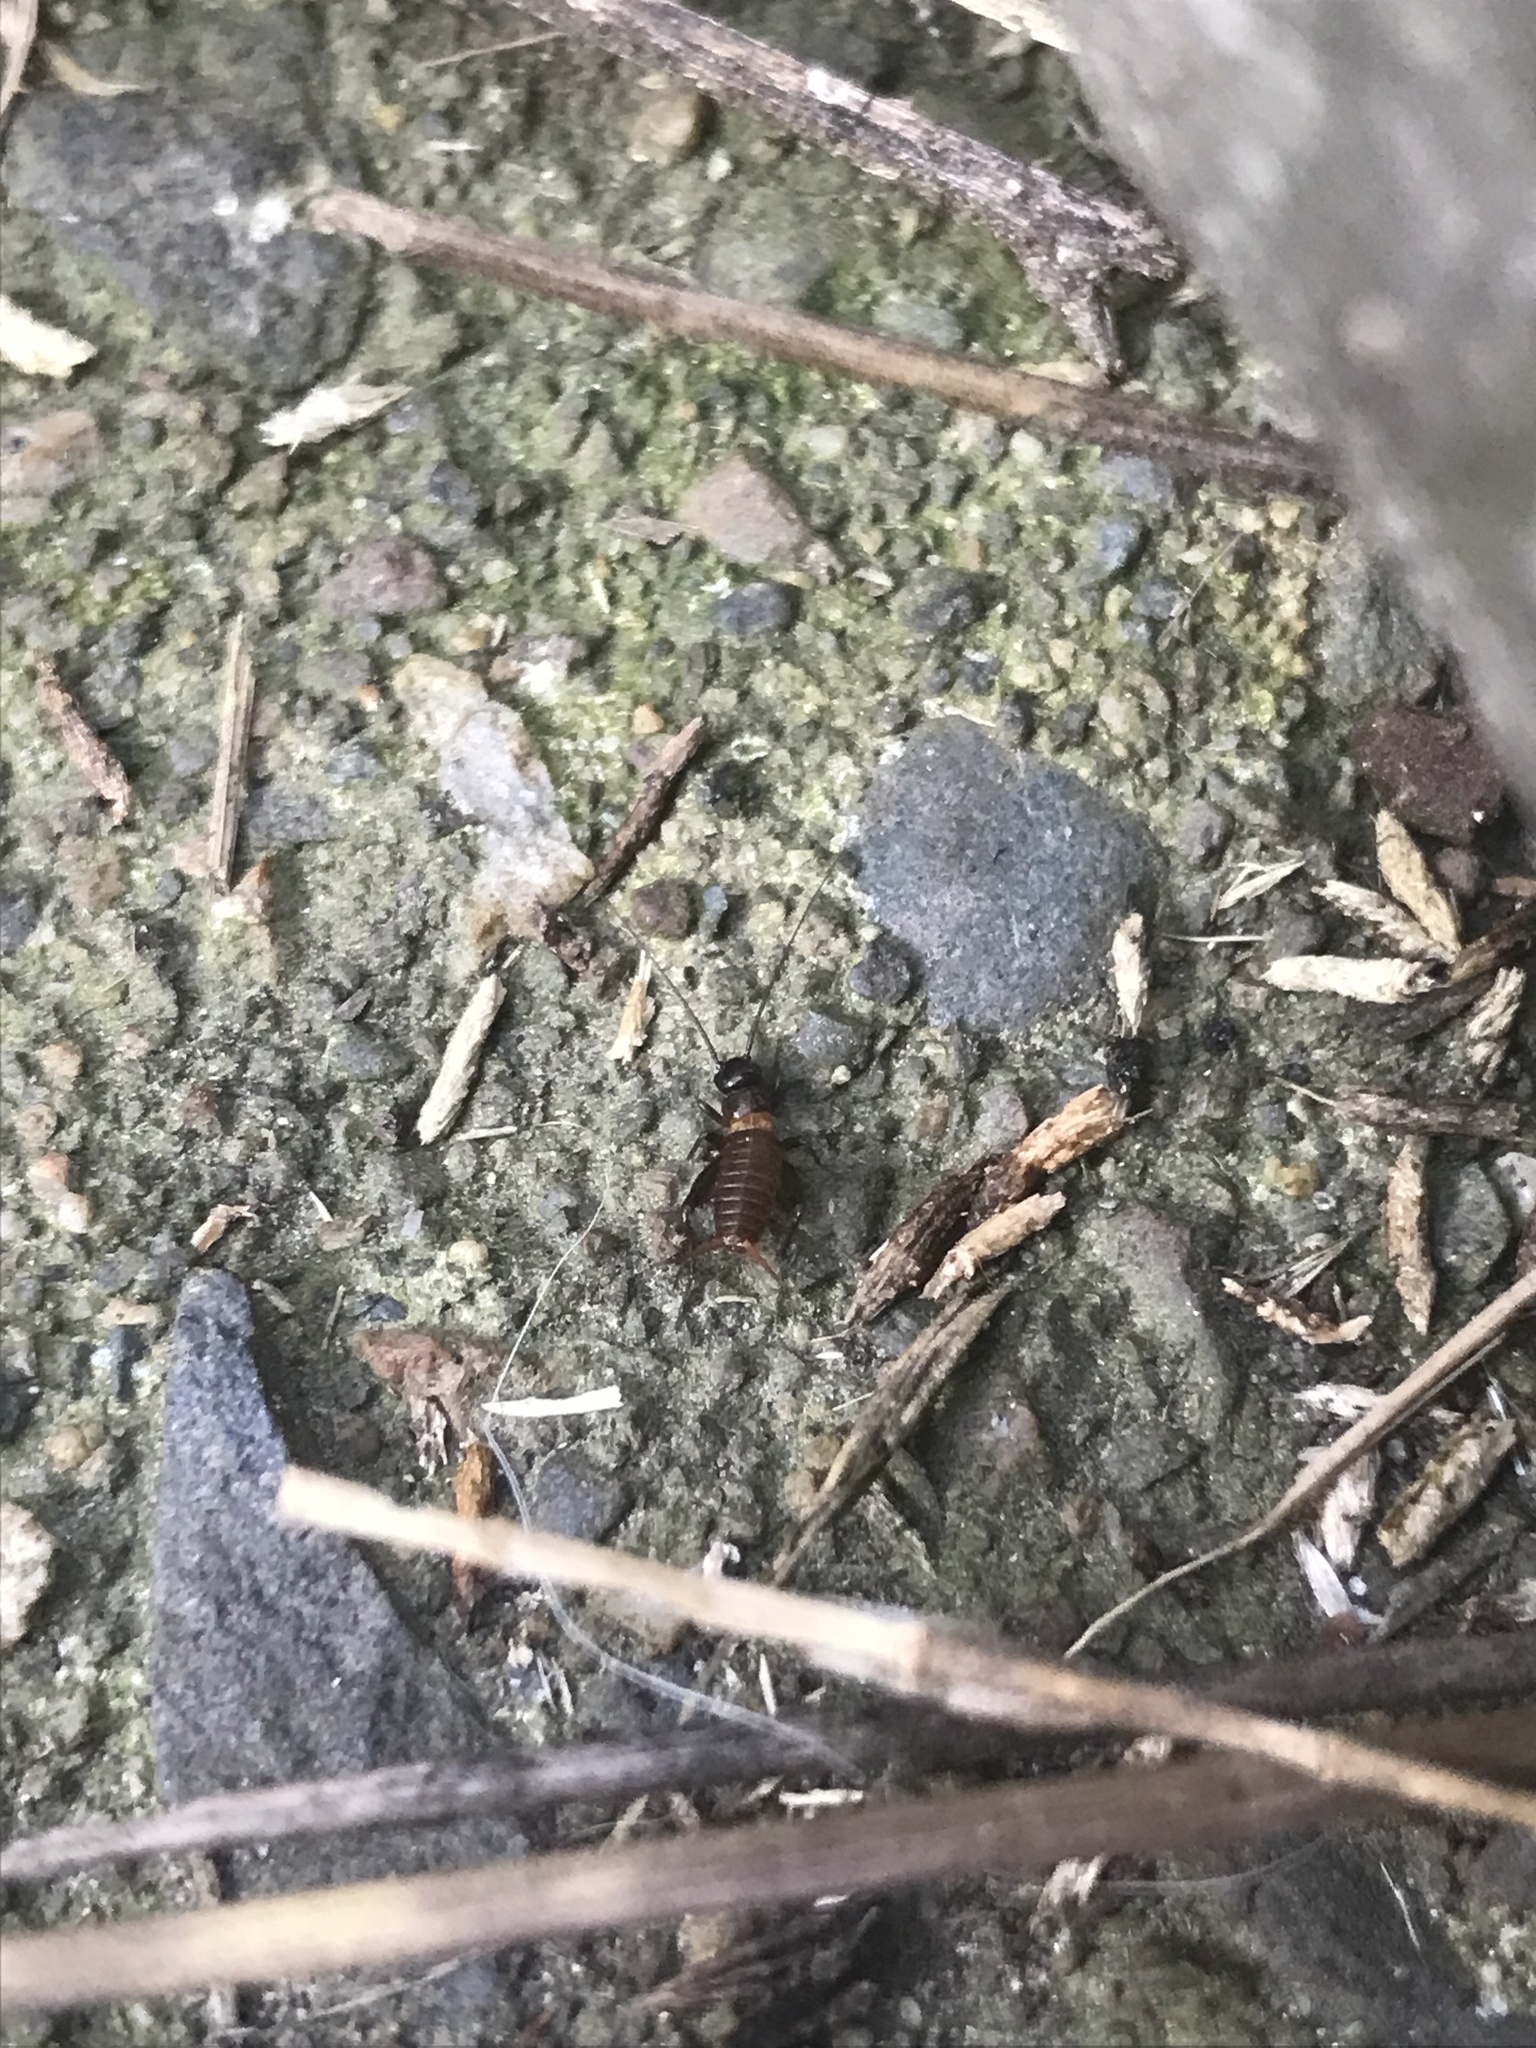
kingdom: Animalia
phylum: Arthropoda
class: Insecta
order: Orthoptera
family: Gryllidae
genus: Gryllus
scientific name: Gryllus veletis
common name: Spring field cricket
